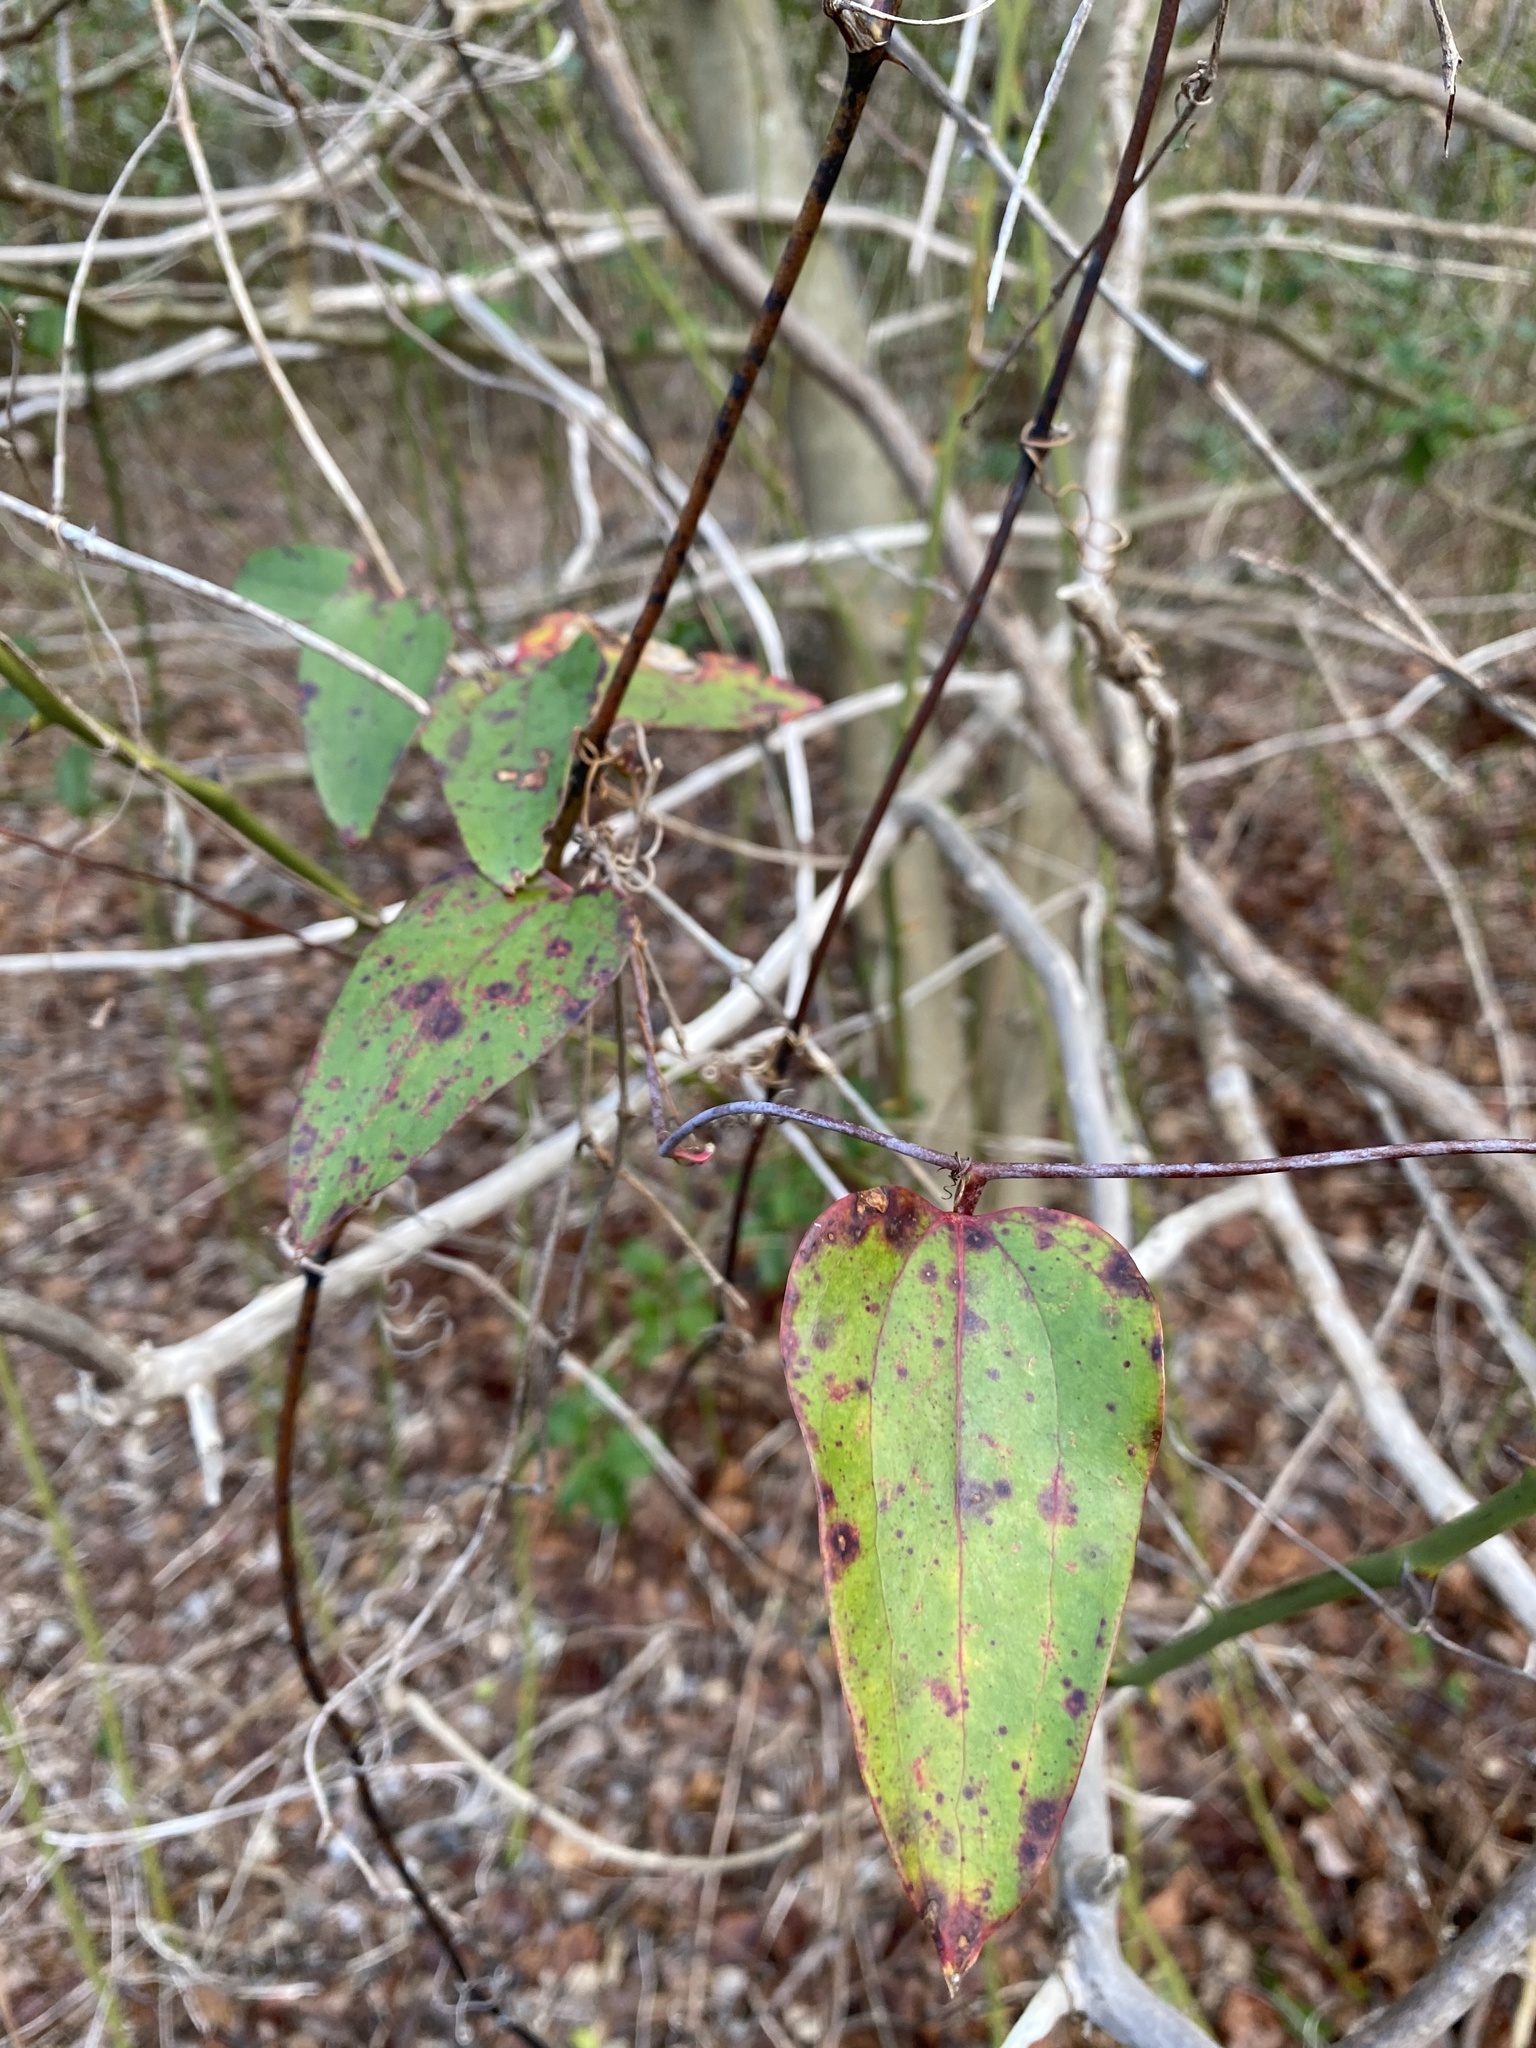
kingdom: Plantae
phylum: Tracheophyta
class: Liliopsida
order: Liliales
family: Smilacaceae
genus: Smilax
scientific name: Smilax glauca
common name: Cat greenbrier
